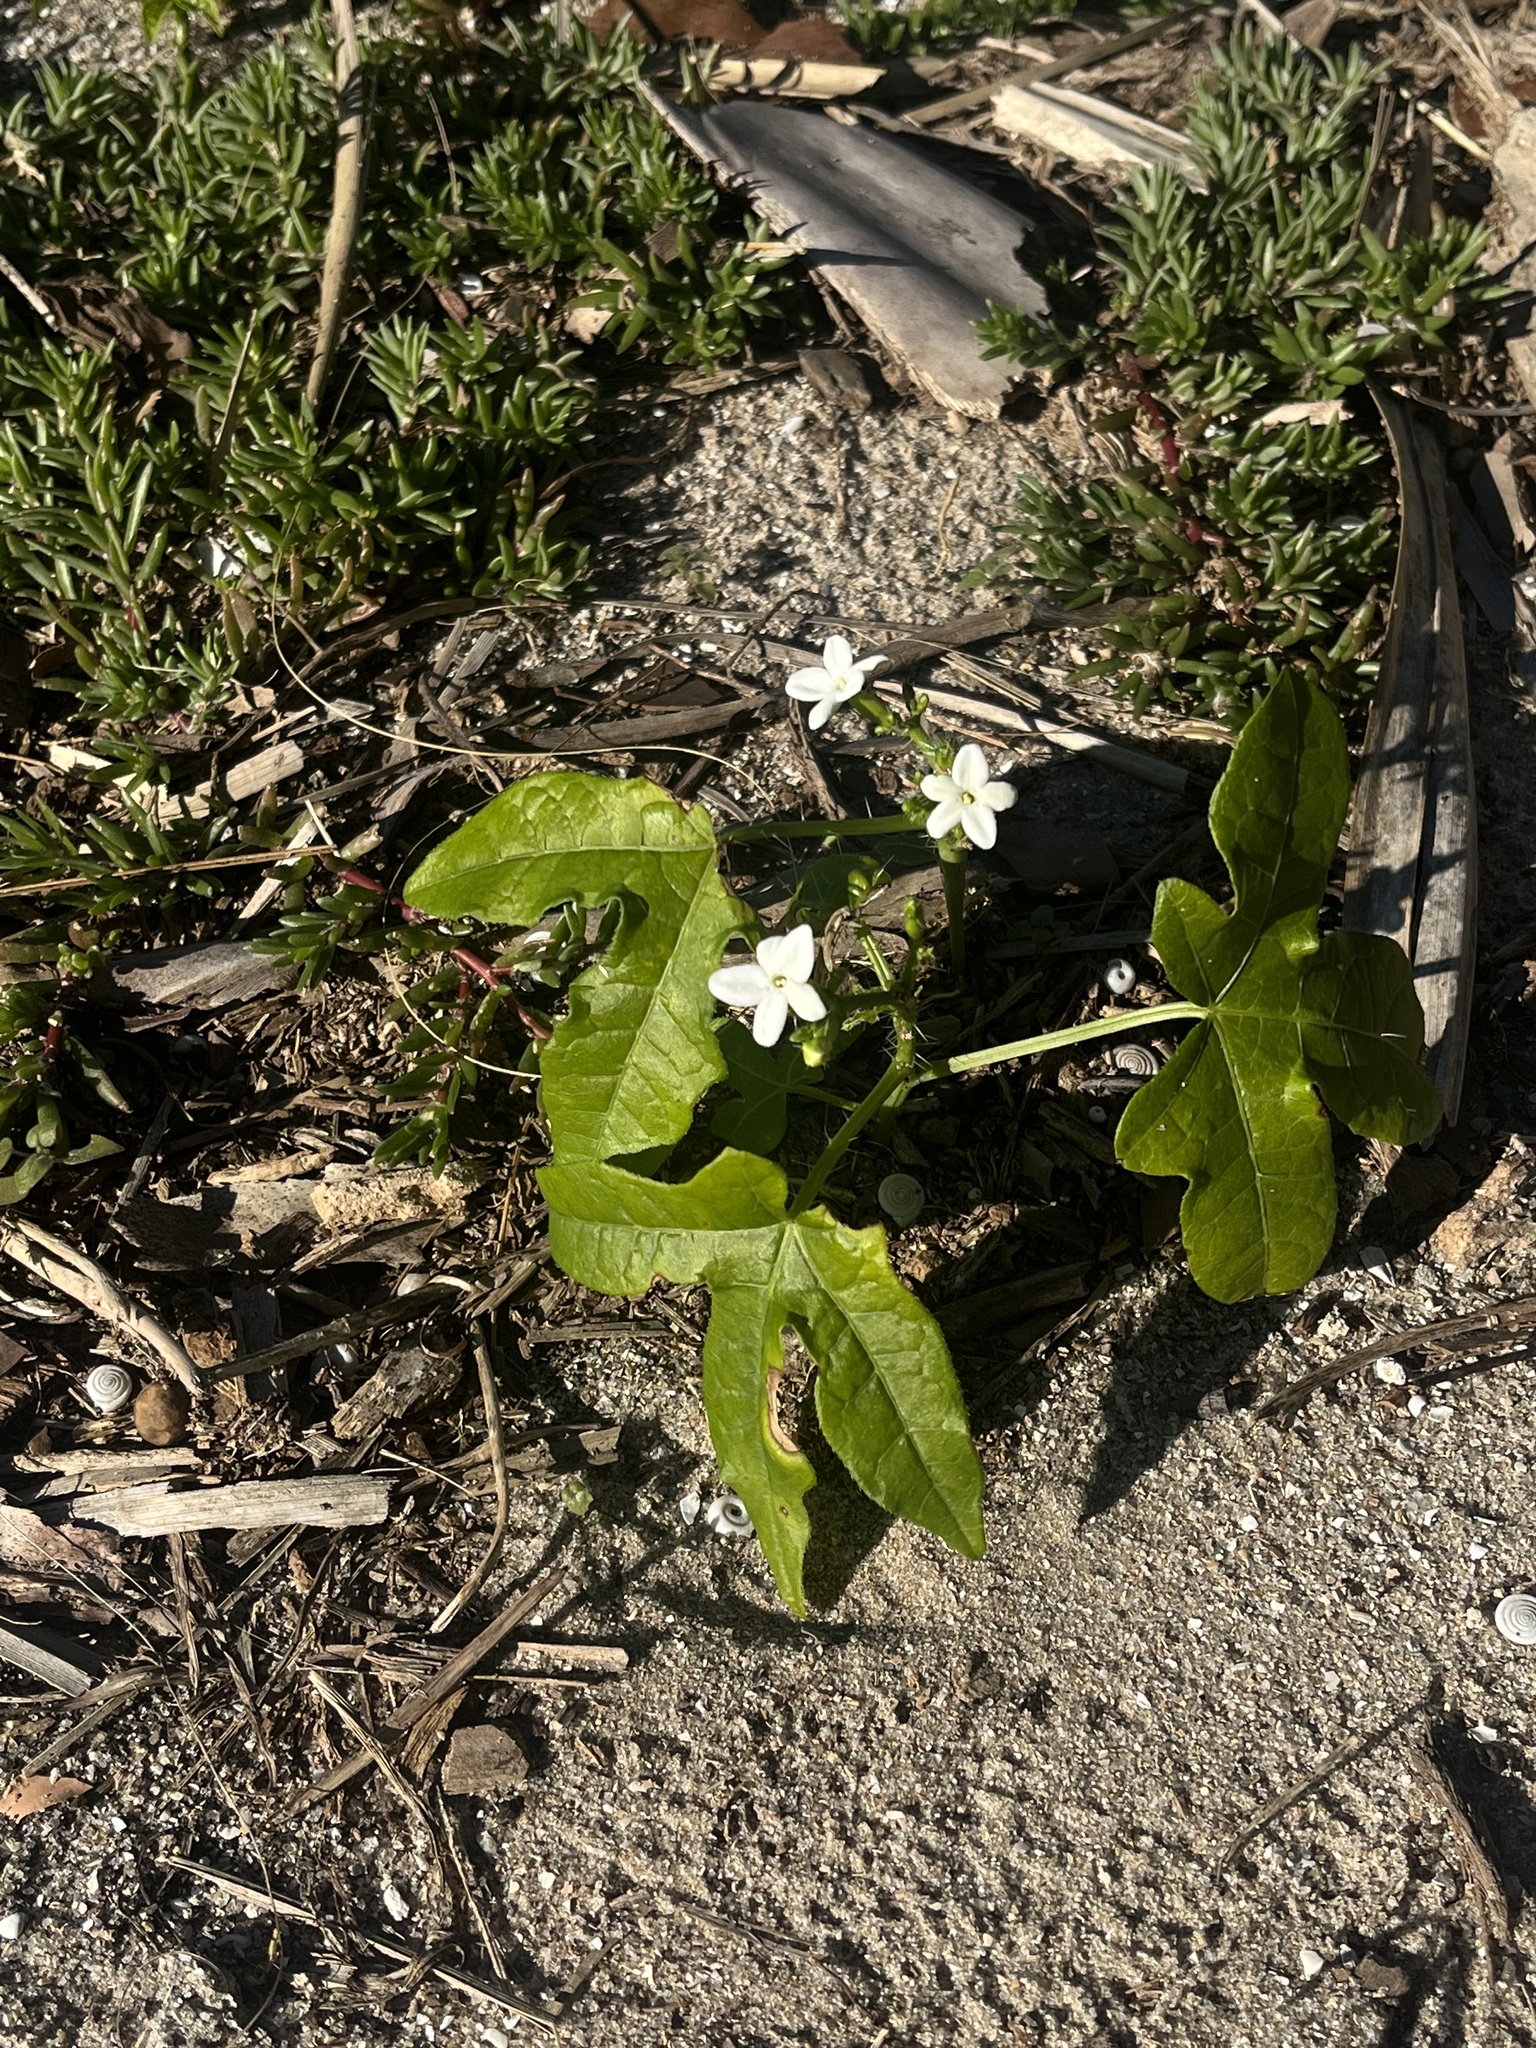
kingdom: Plantae
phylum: Tracheophyta
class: Magnoliopsida
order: Malpighiales
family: Euphorbiaceae
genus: Cnidoscolus
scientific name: Cnidoscolus stimulosus
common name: Bull-nettle
